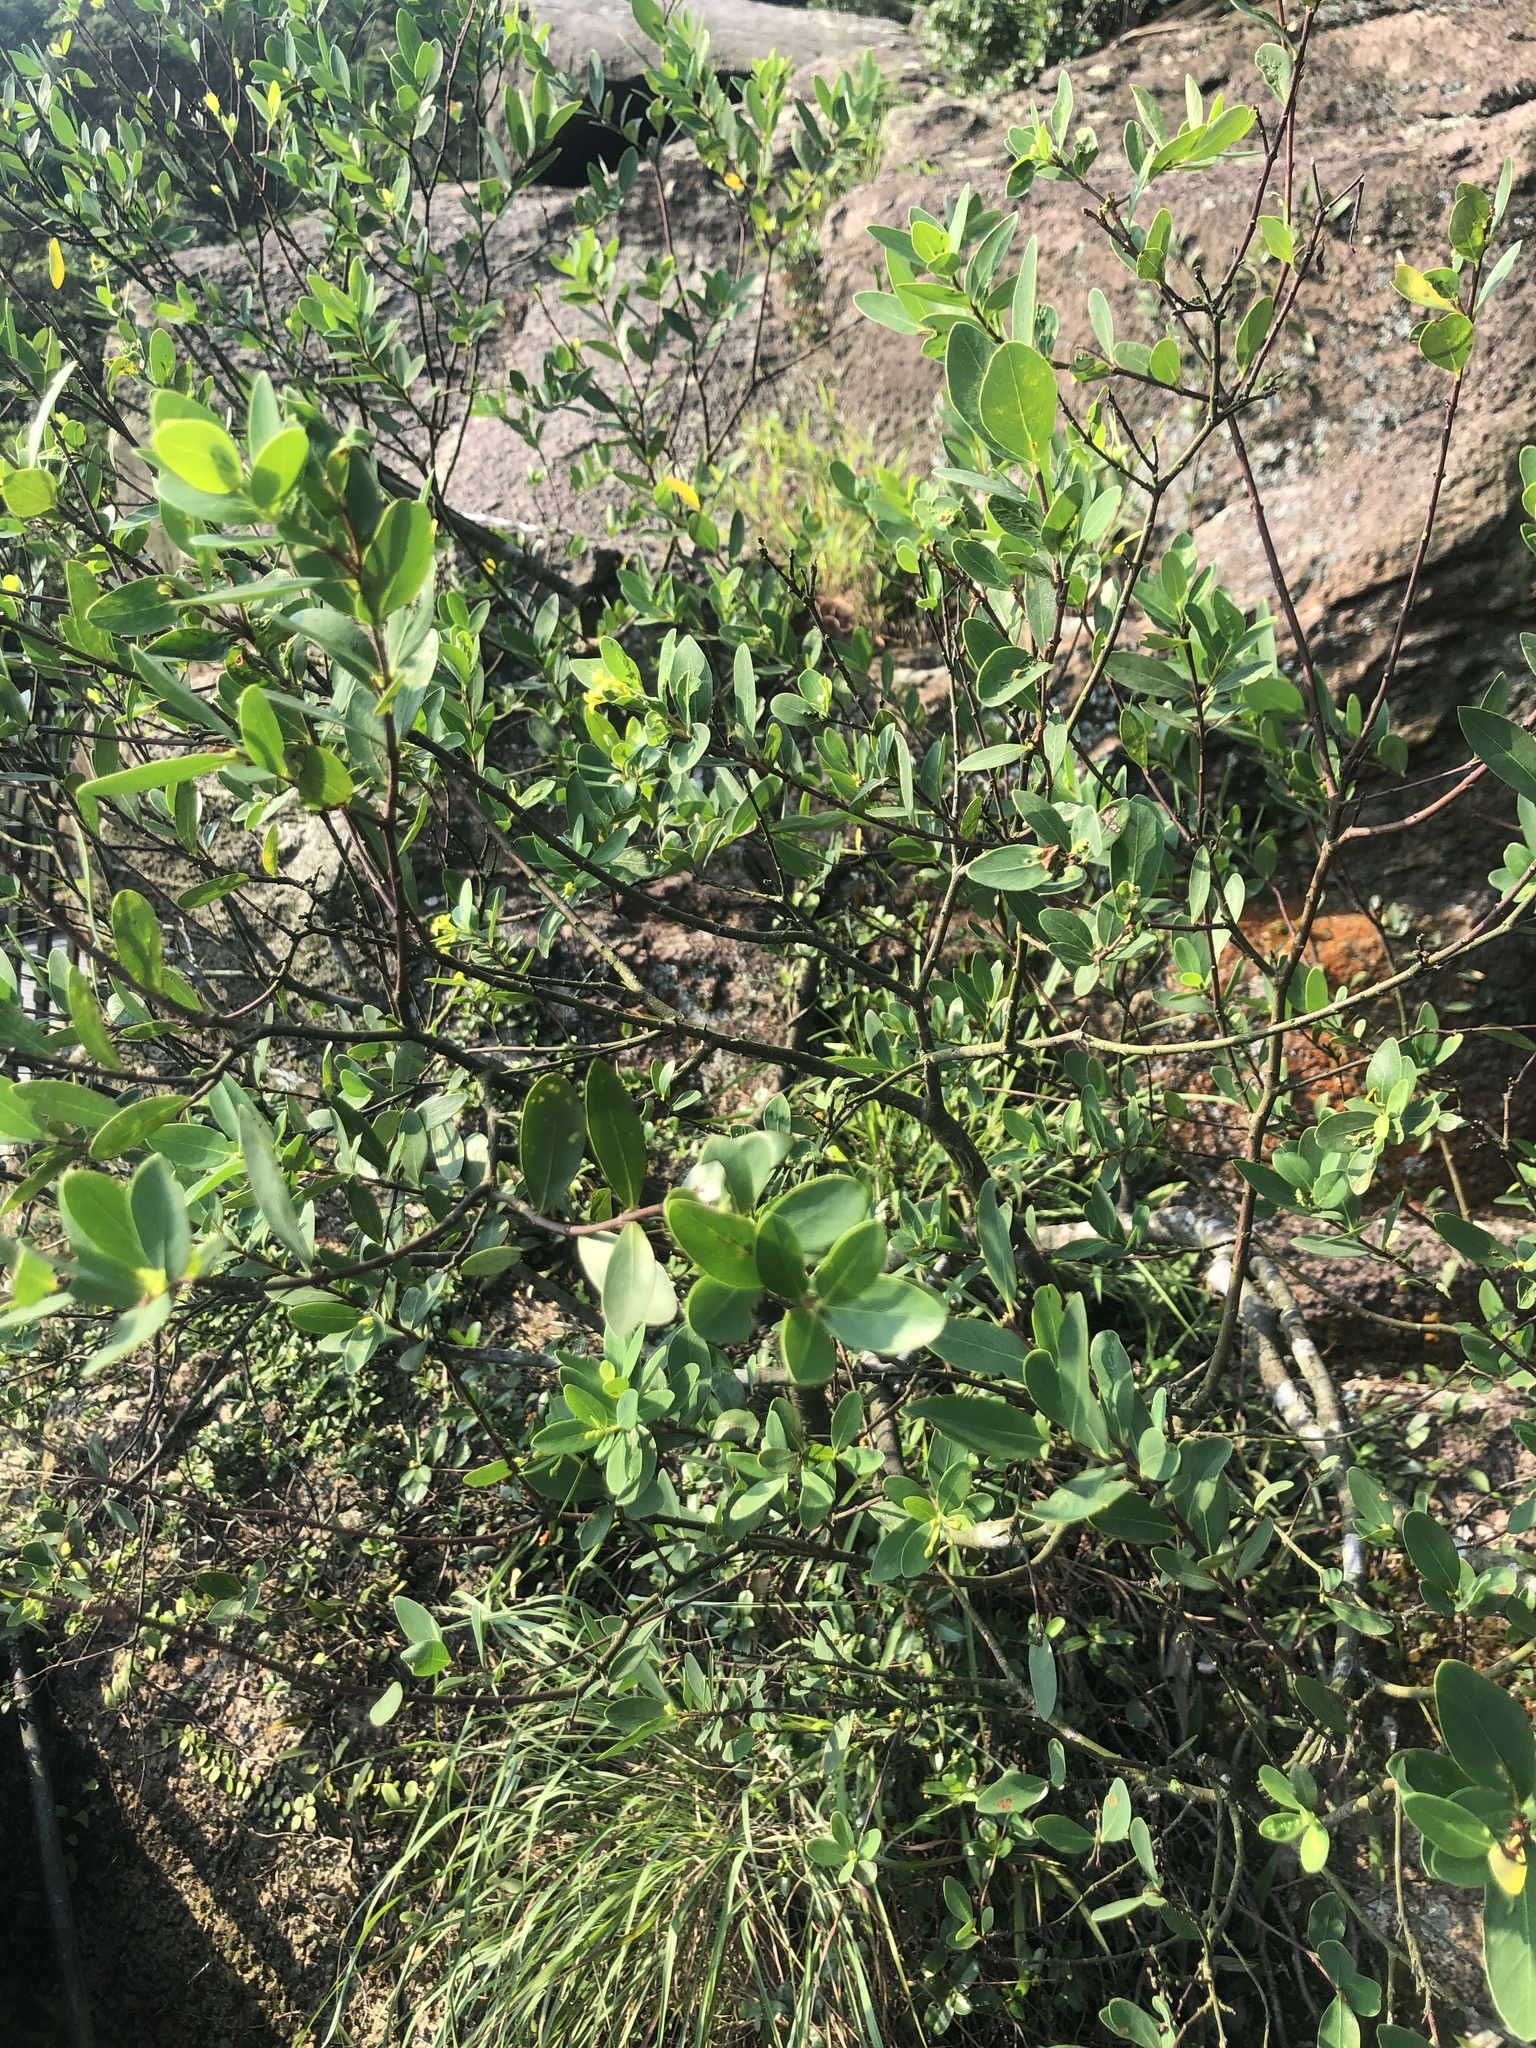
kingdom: Plantae
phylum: Tracheophyta
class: Magnoliopsida
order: Malvales
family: Thymelaeaceae
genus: Wikstroemia
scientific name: Wikstroemia indica
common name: Tiebush
